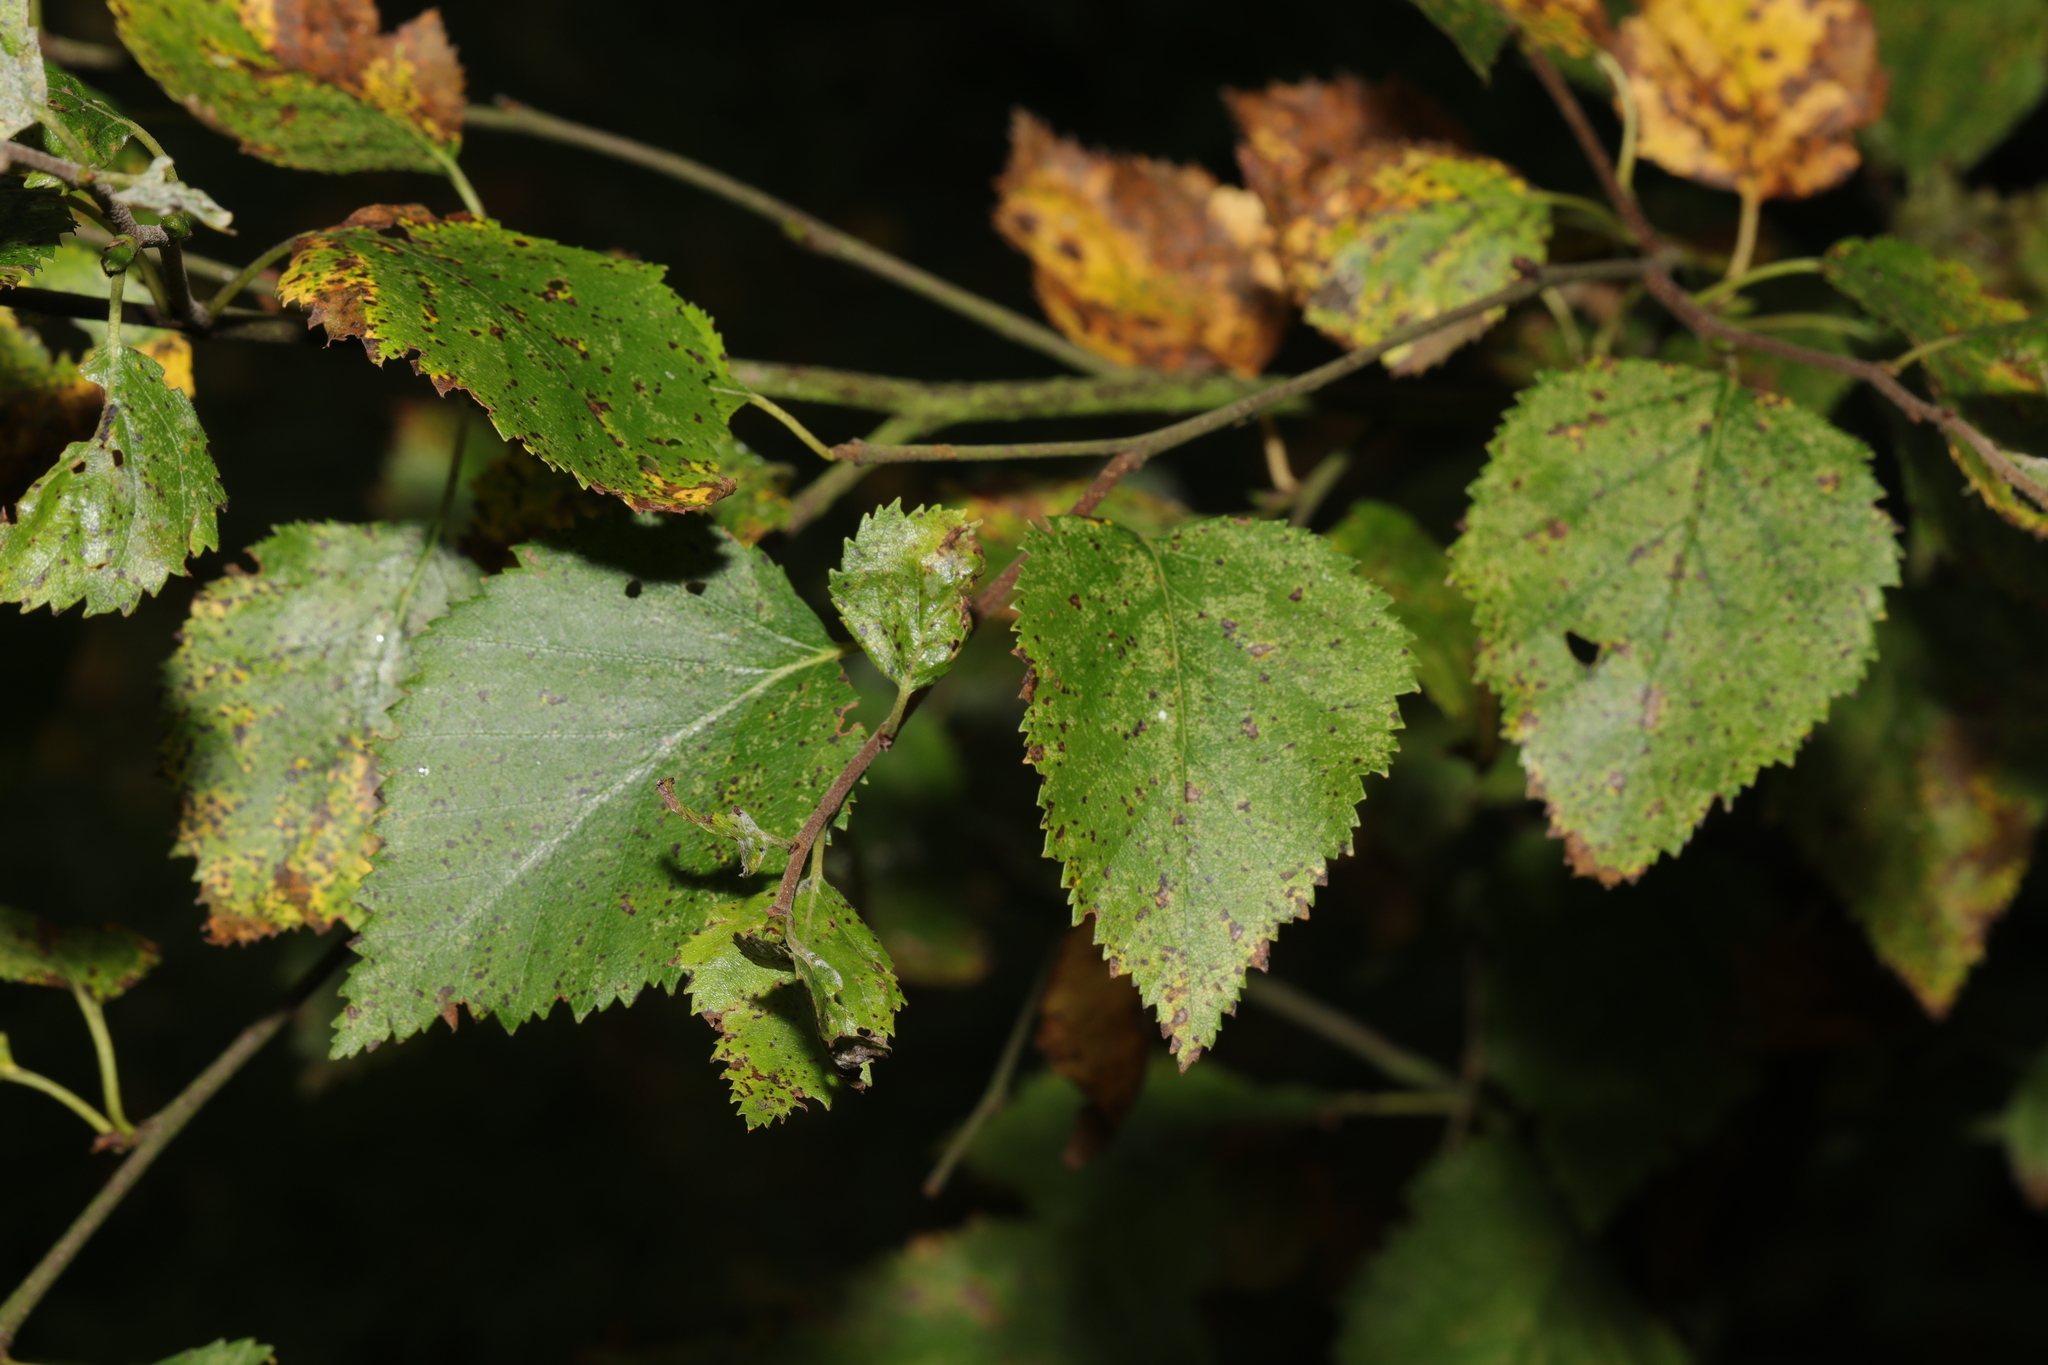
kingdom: Plantae
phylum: Tracheophyta
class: Magnoliopsida
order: Fagales
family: Betulaceae
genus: Betula
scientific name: Betula pubescens
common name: Downy birch
